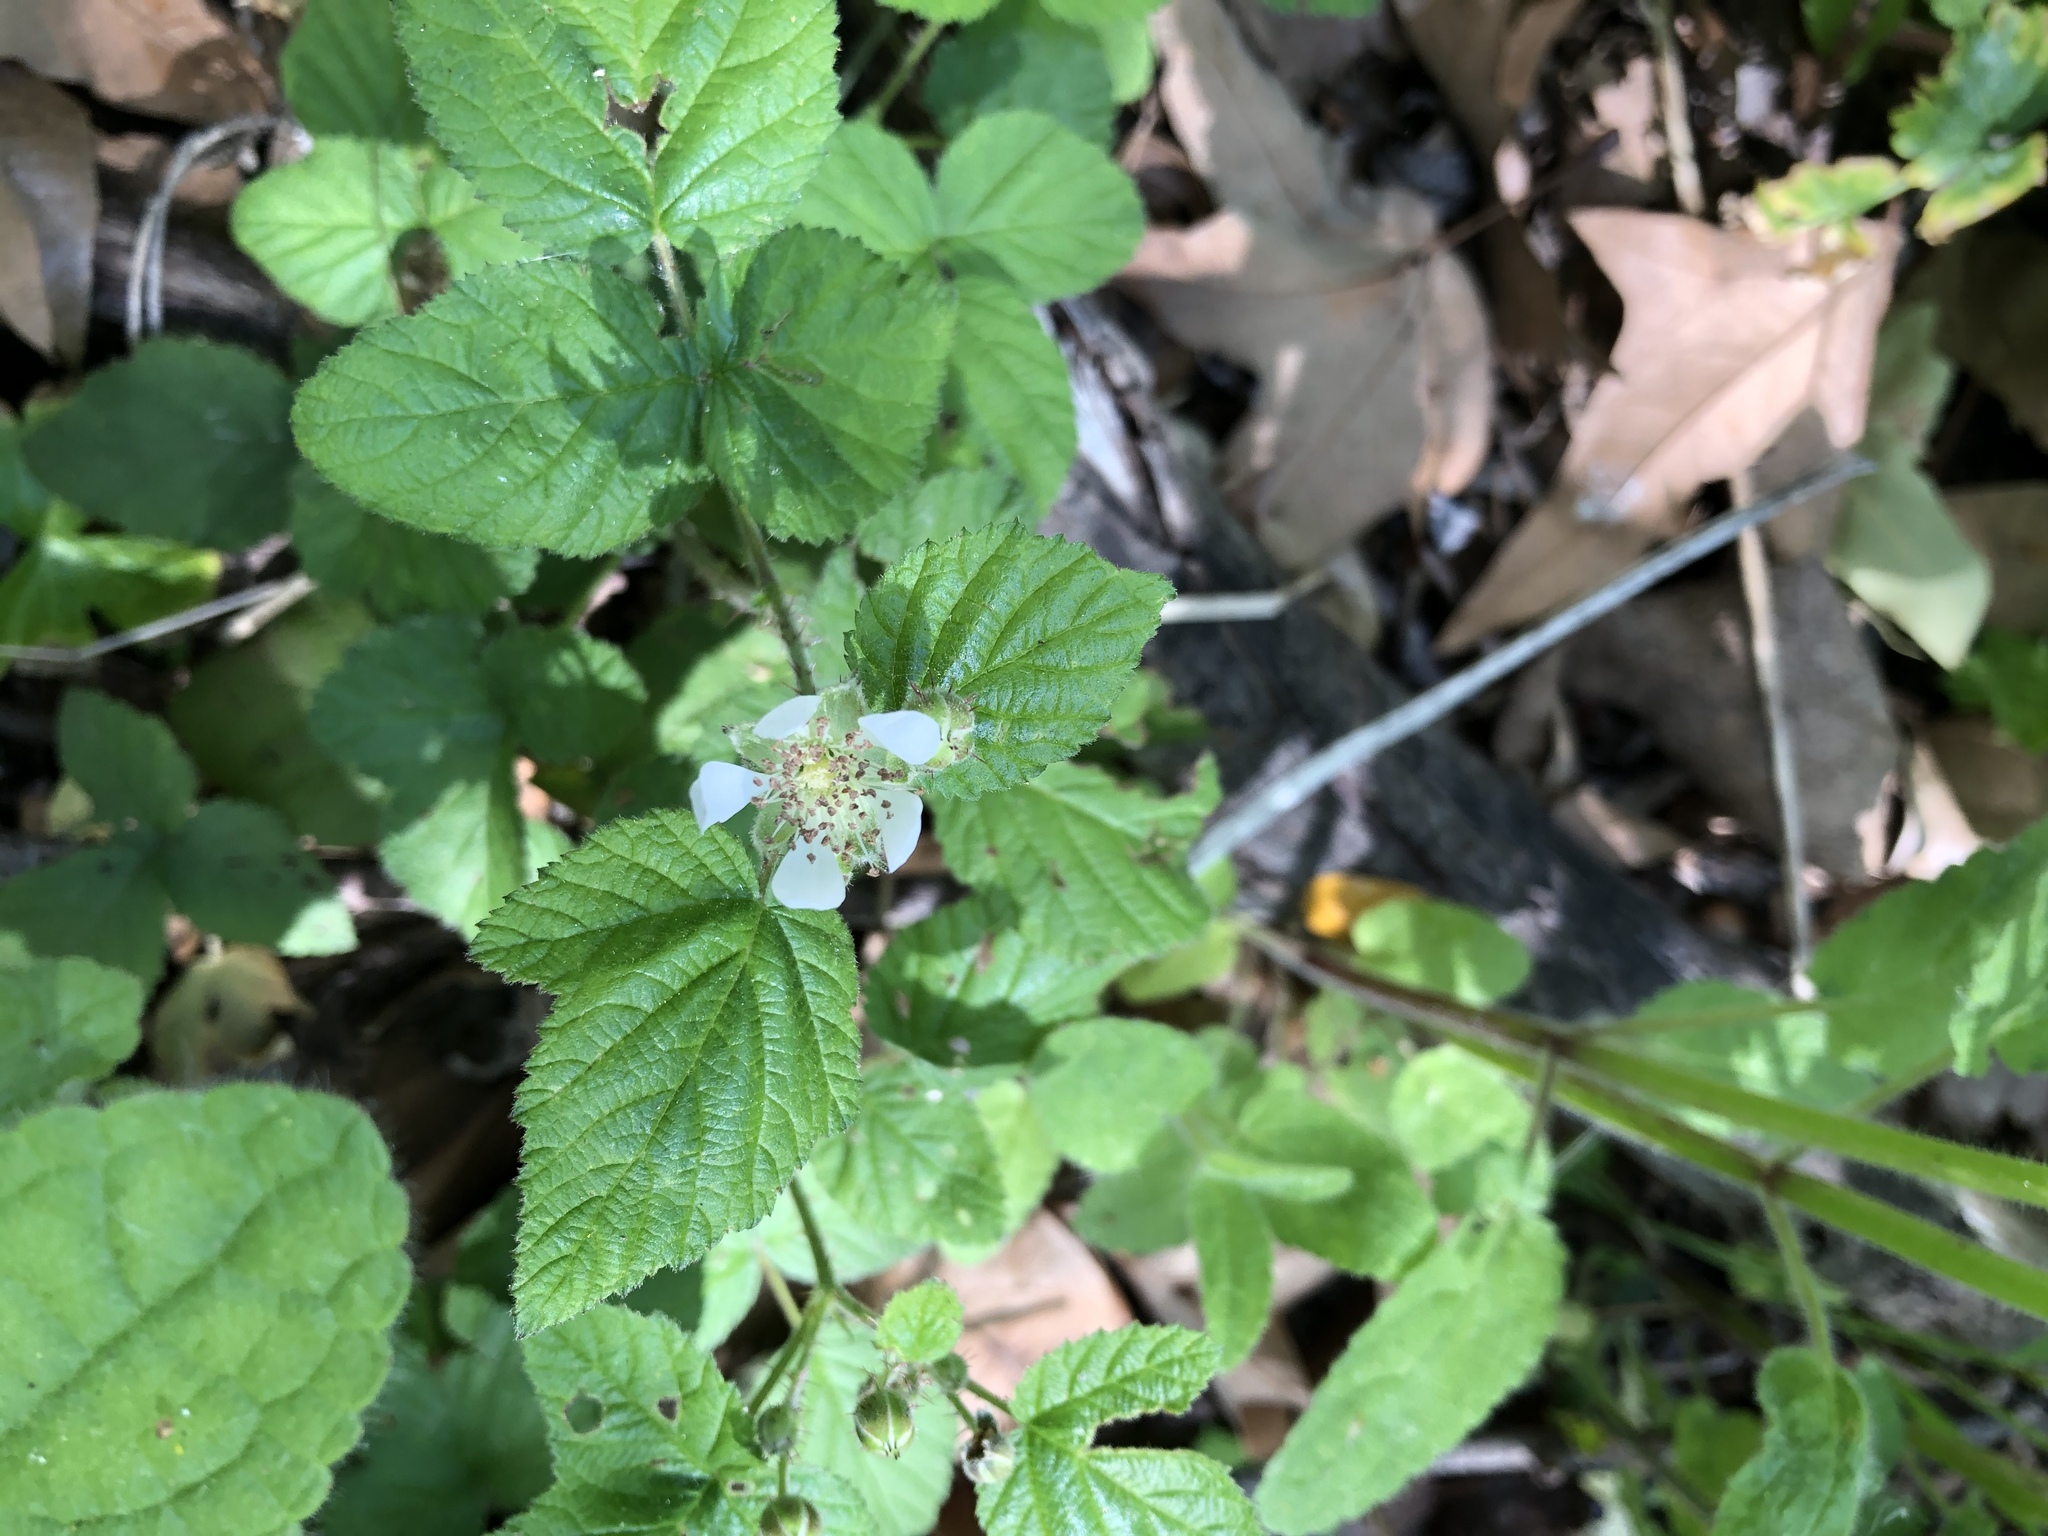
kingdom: Plantae
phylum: Tracheophyta
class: Magnoliopsida
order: Rosales
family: Rosaceae
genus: Rubus
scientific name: Rubus ursinus
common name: Pacific blackberry
